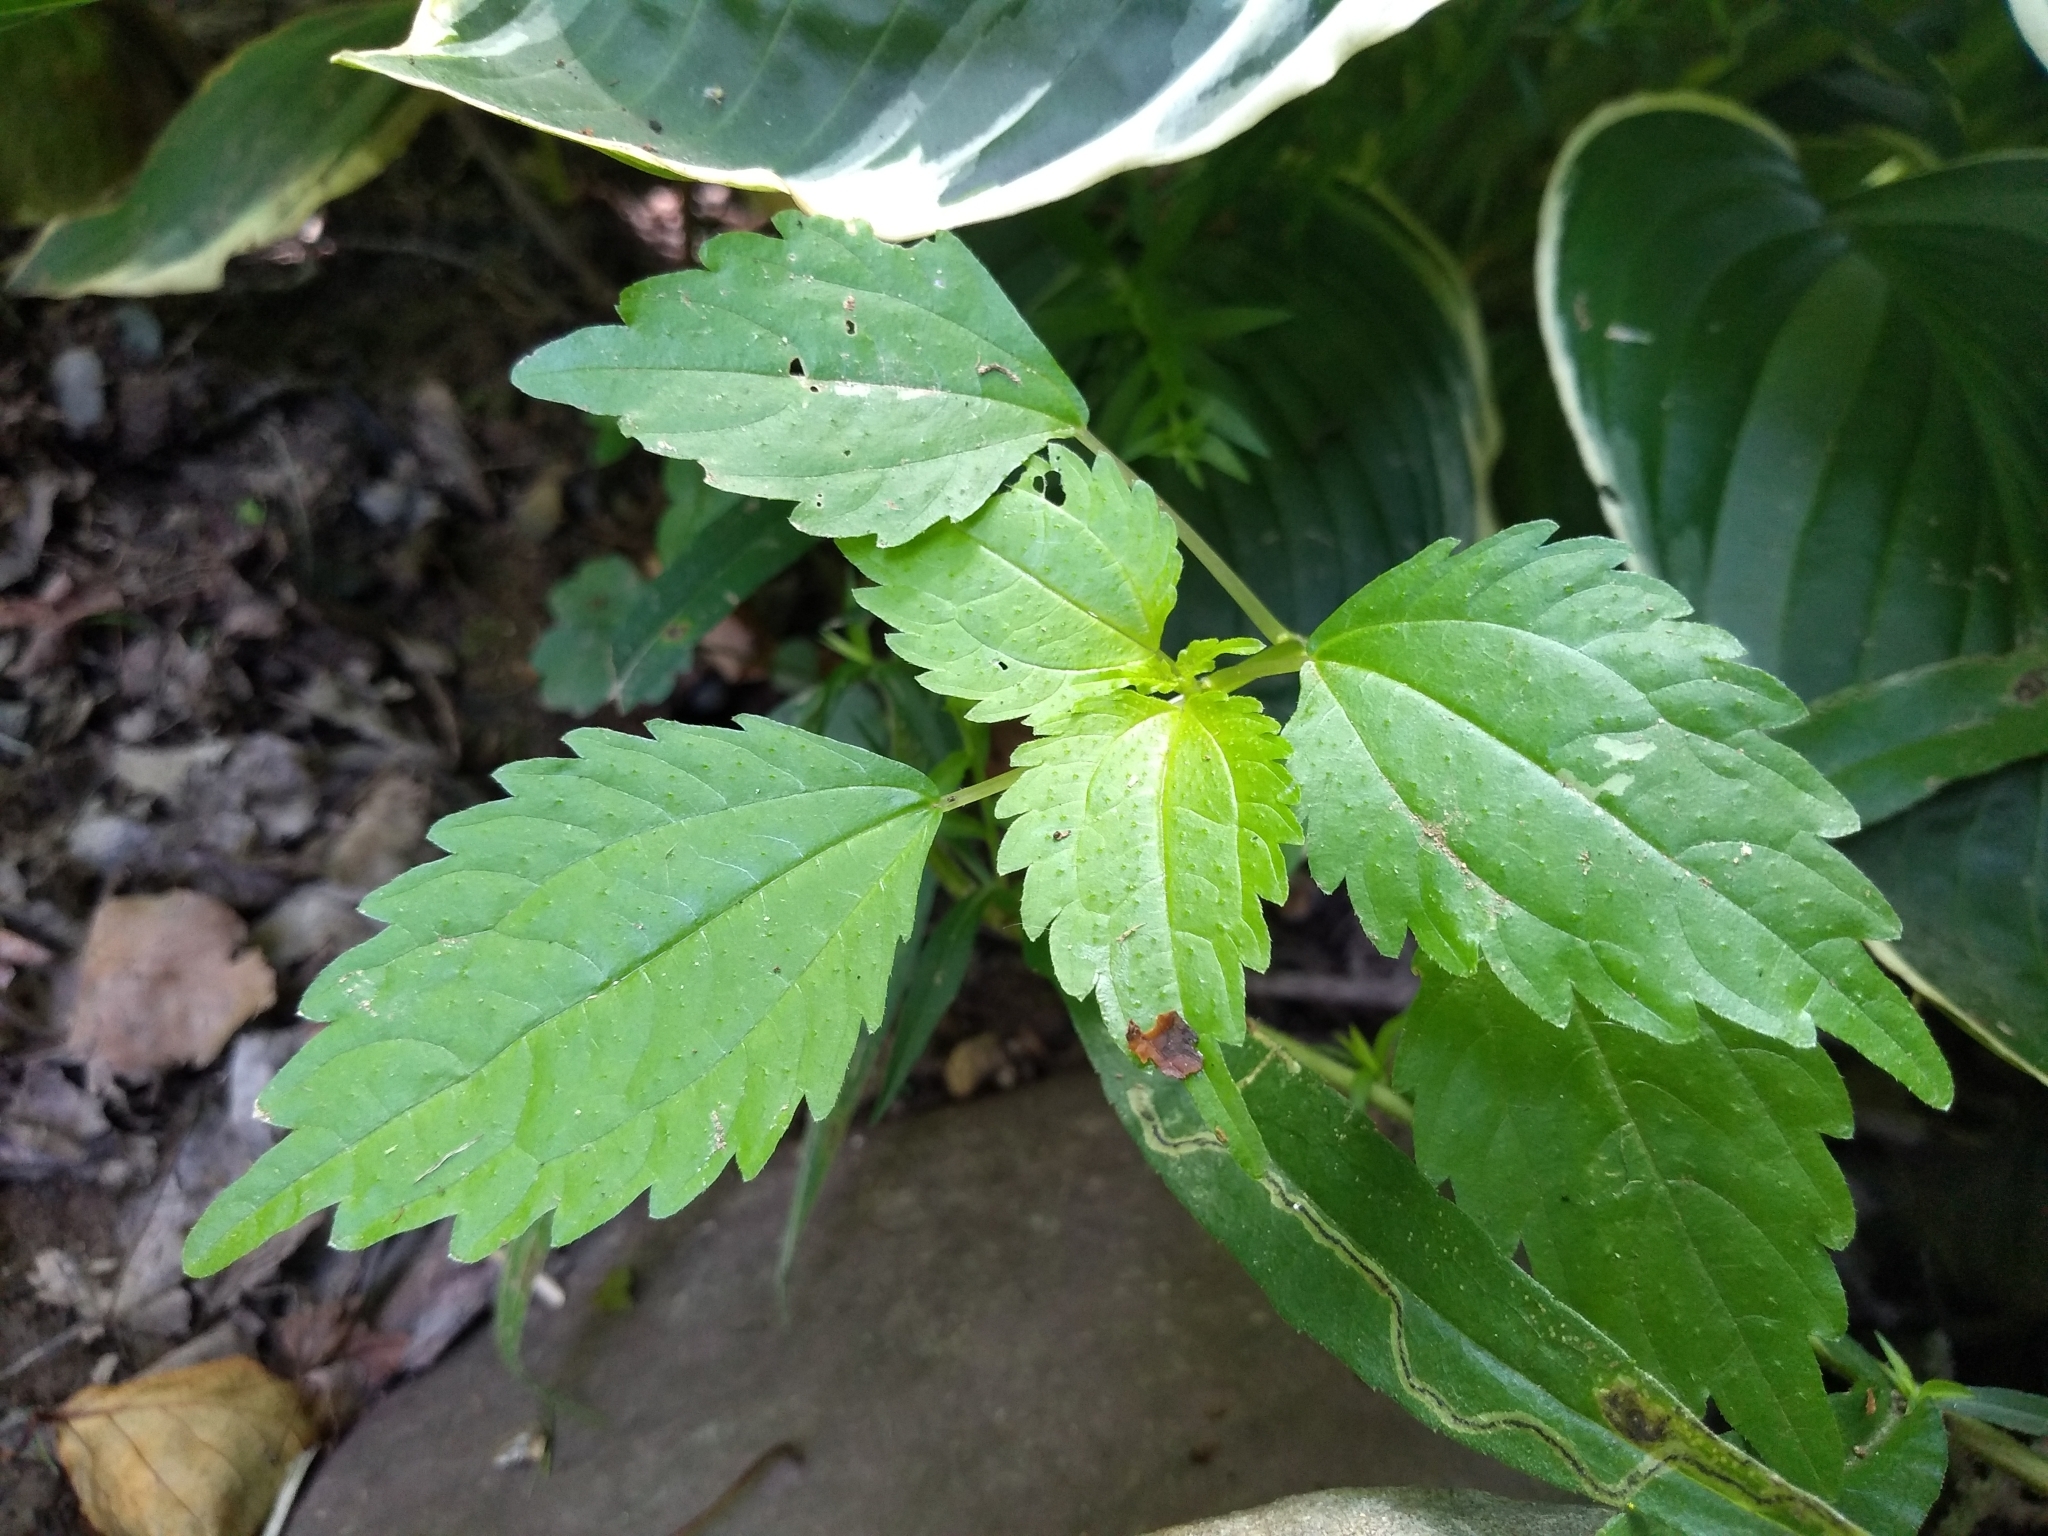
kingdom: Plantae
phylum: Tracheophyta
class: Magnoliopsida
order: Rosales
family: Urticaceae
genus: Pilea
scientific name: Pilea pumila
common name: Clearweed
